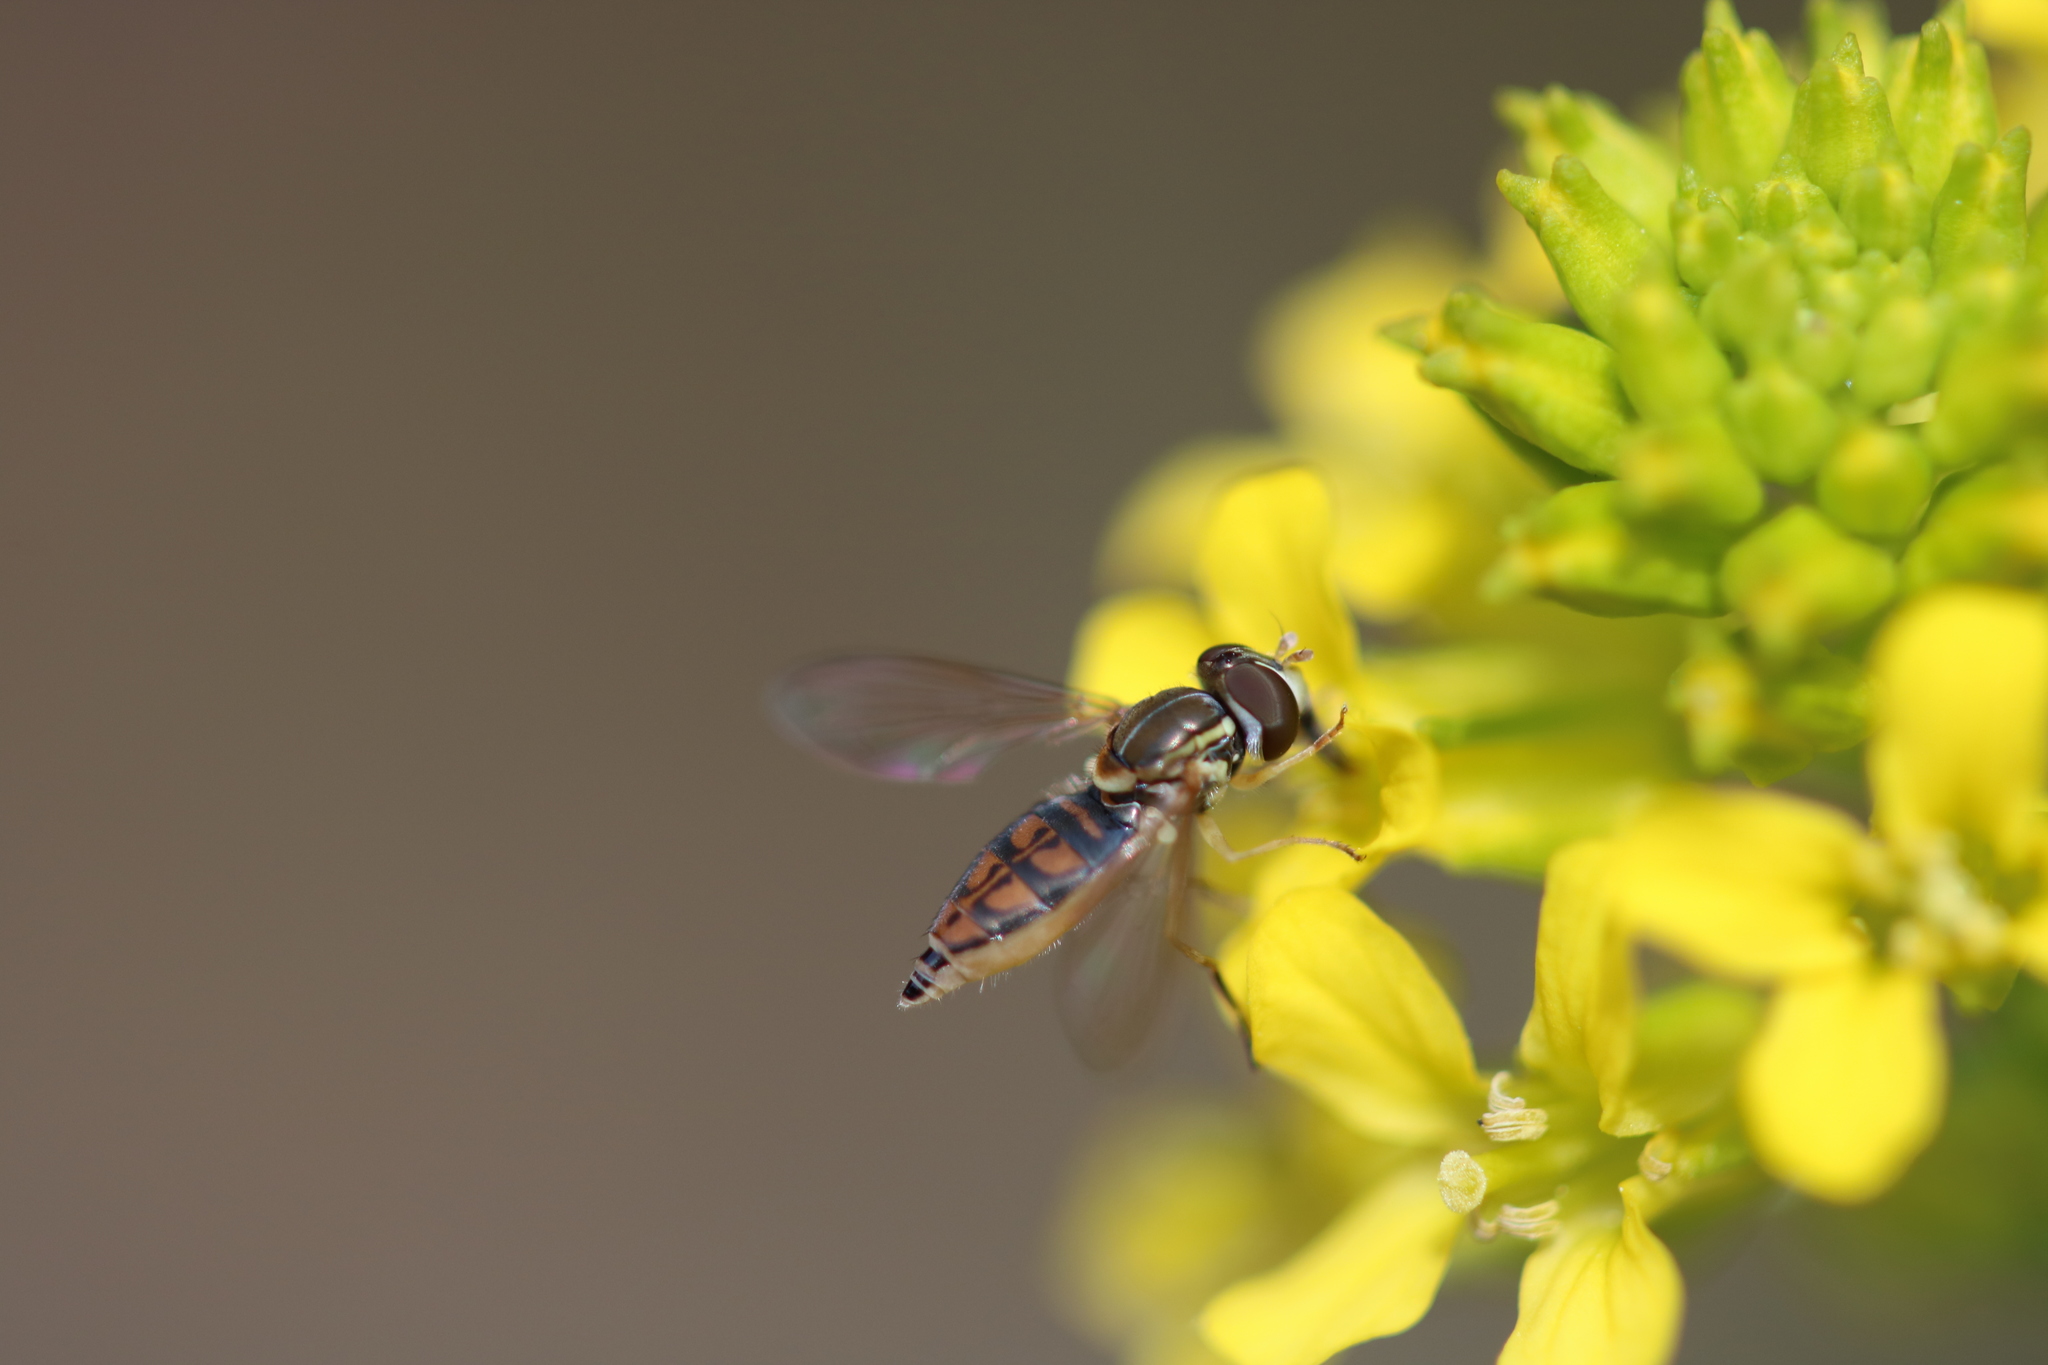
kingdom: Animalia
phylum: Arthropoda
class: Insecta
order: Diptera
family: Syrphidae
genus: Toxomerus
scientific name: Toxomerus marginatus
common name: Syrphid fly
